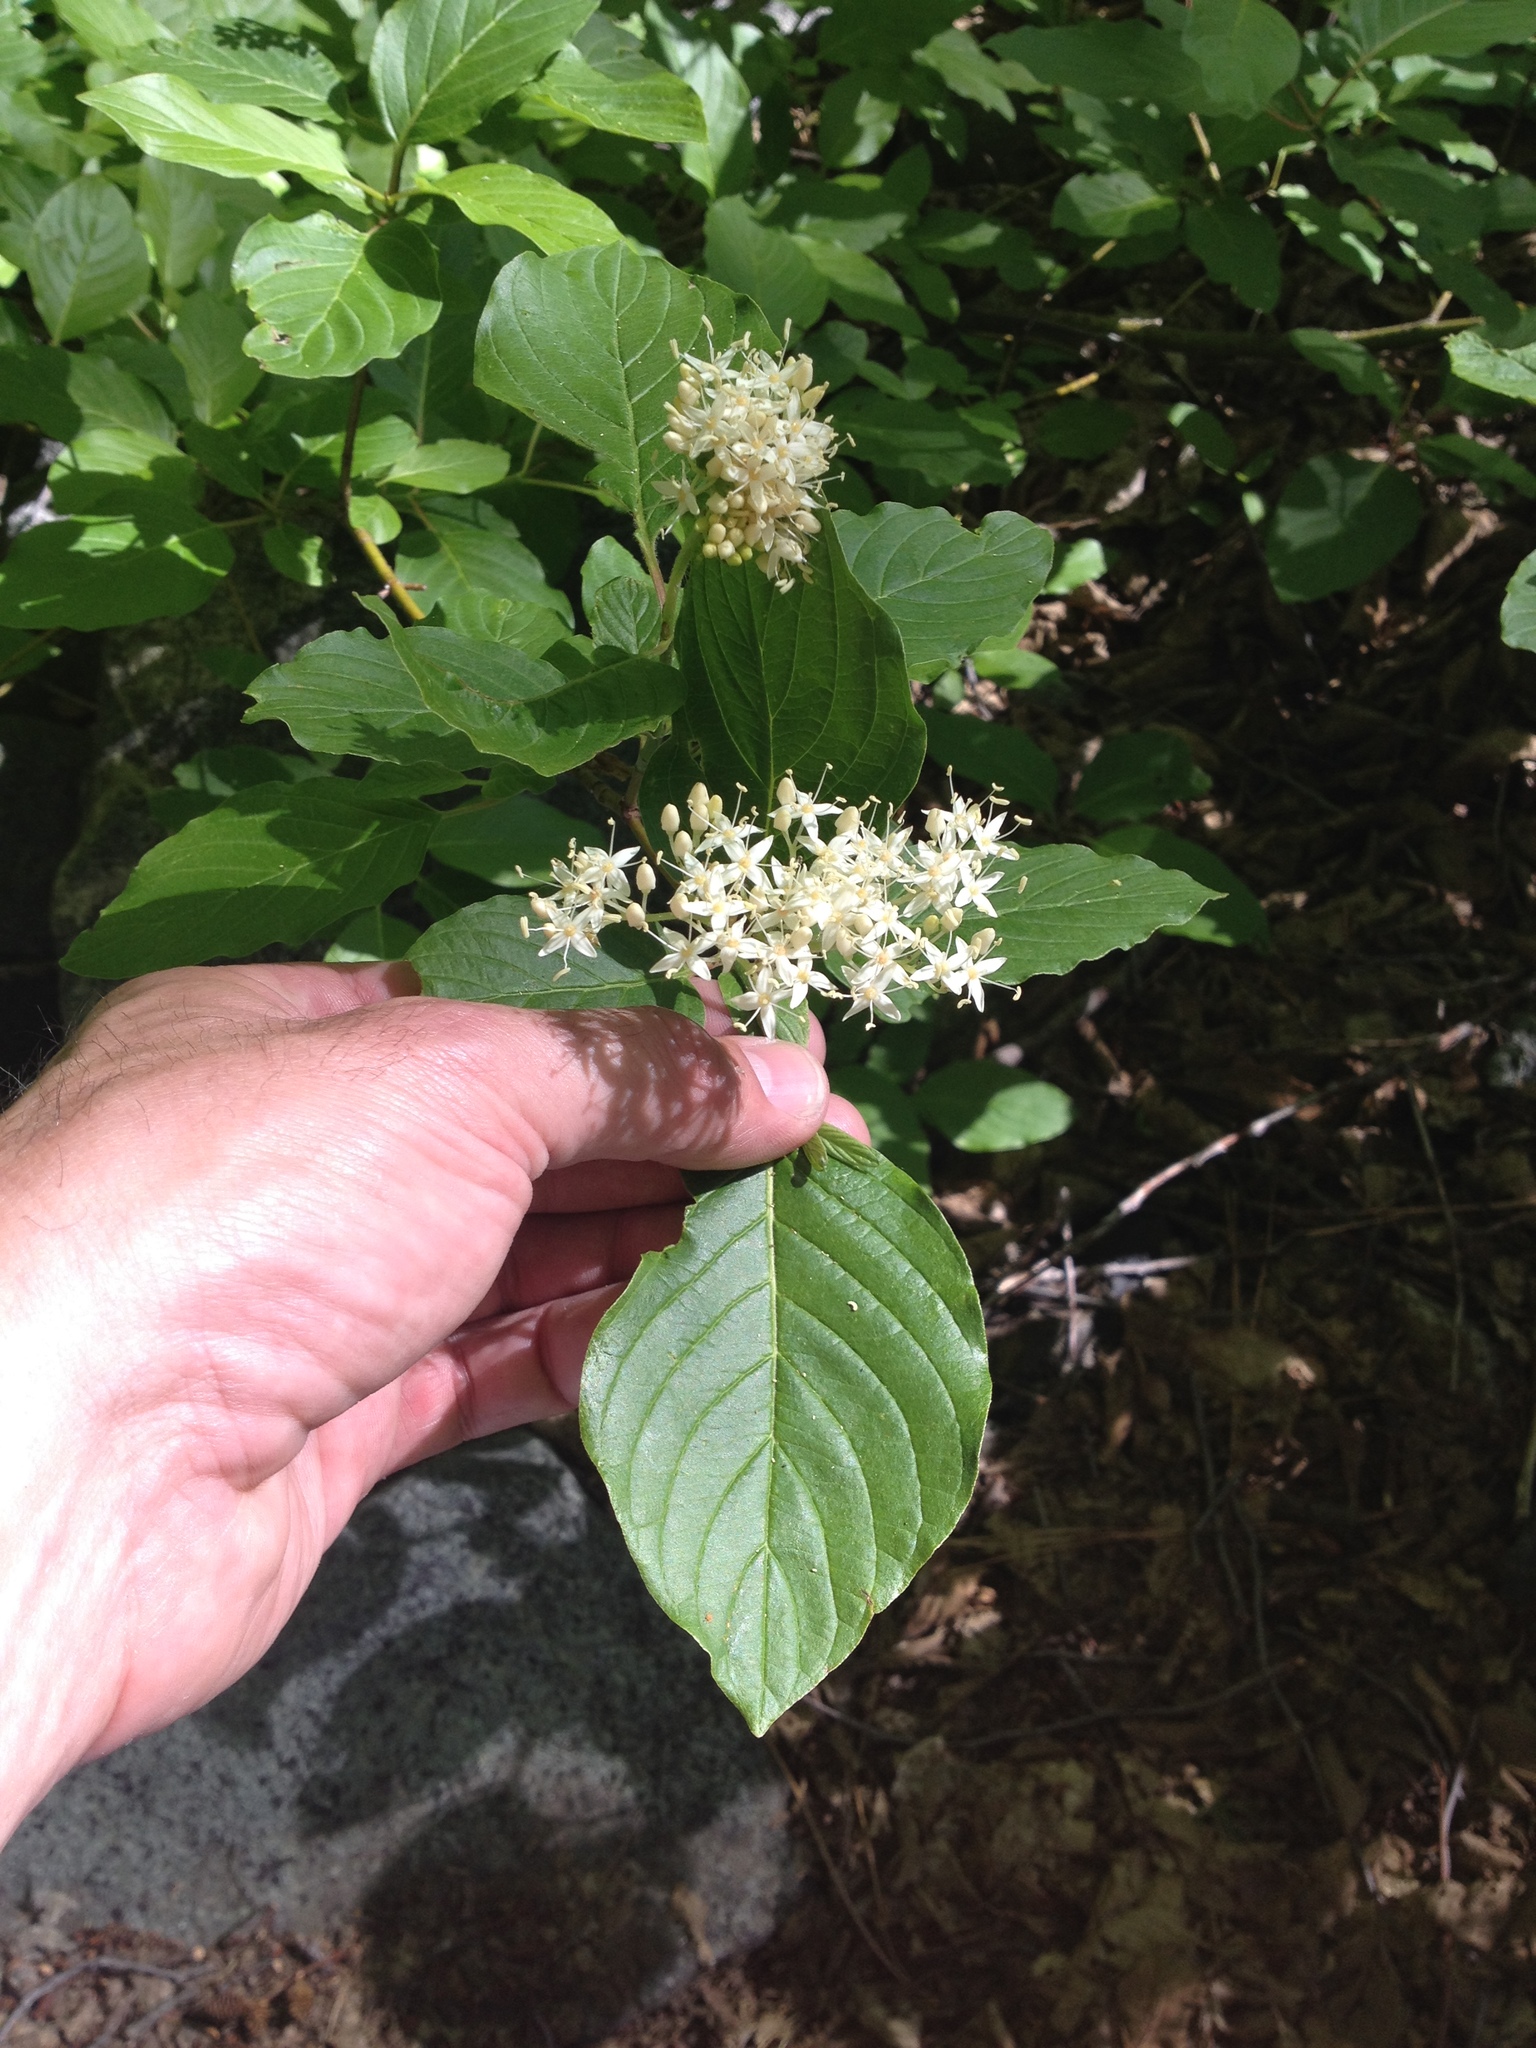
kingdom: Plantae
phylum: Tracheophyta
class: Magnoliopsida
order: Cornales
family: Cornaceae
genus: Cornus
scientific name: Cornus sericea
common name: Red-osier dogwood
